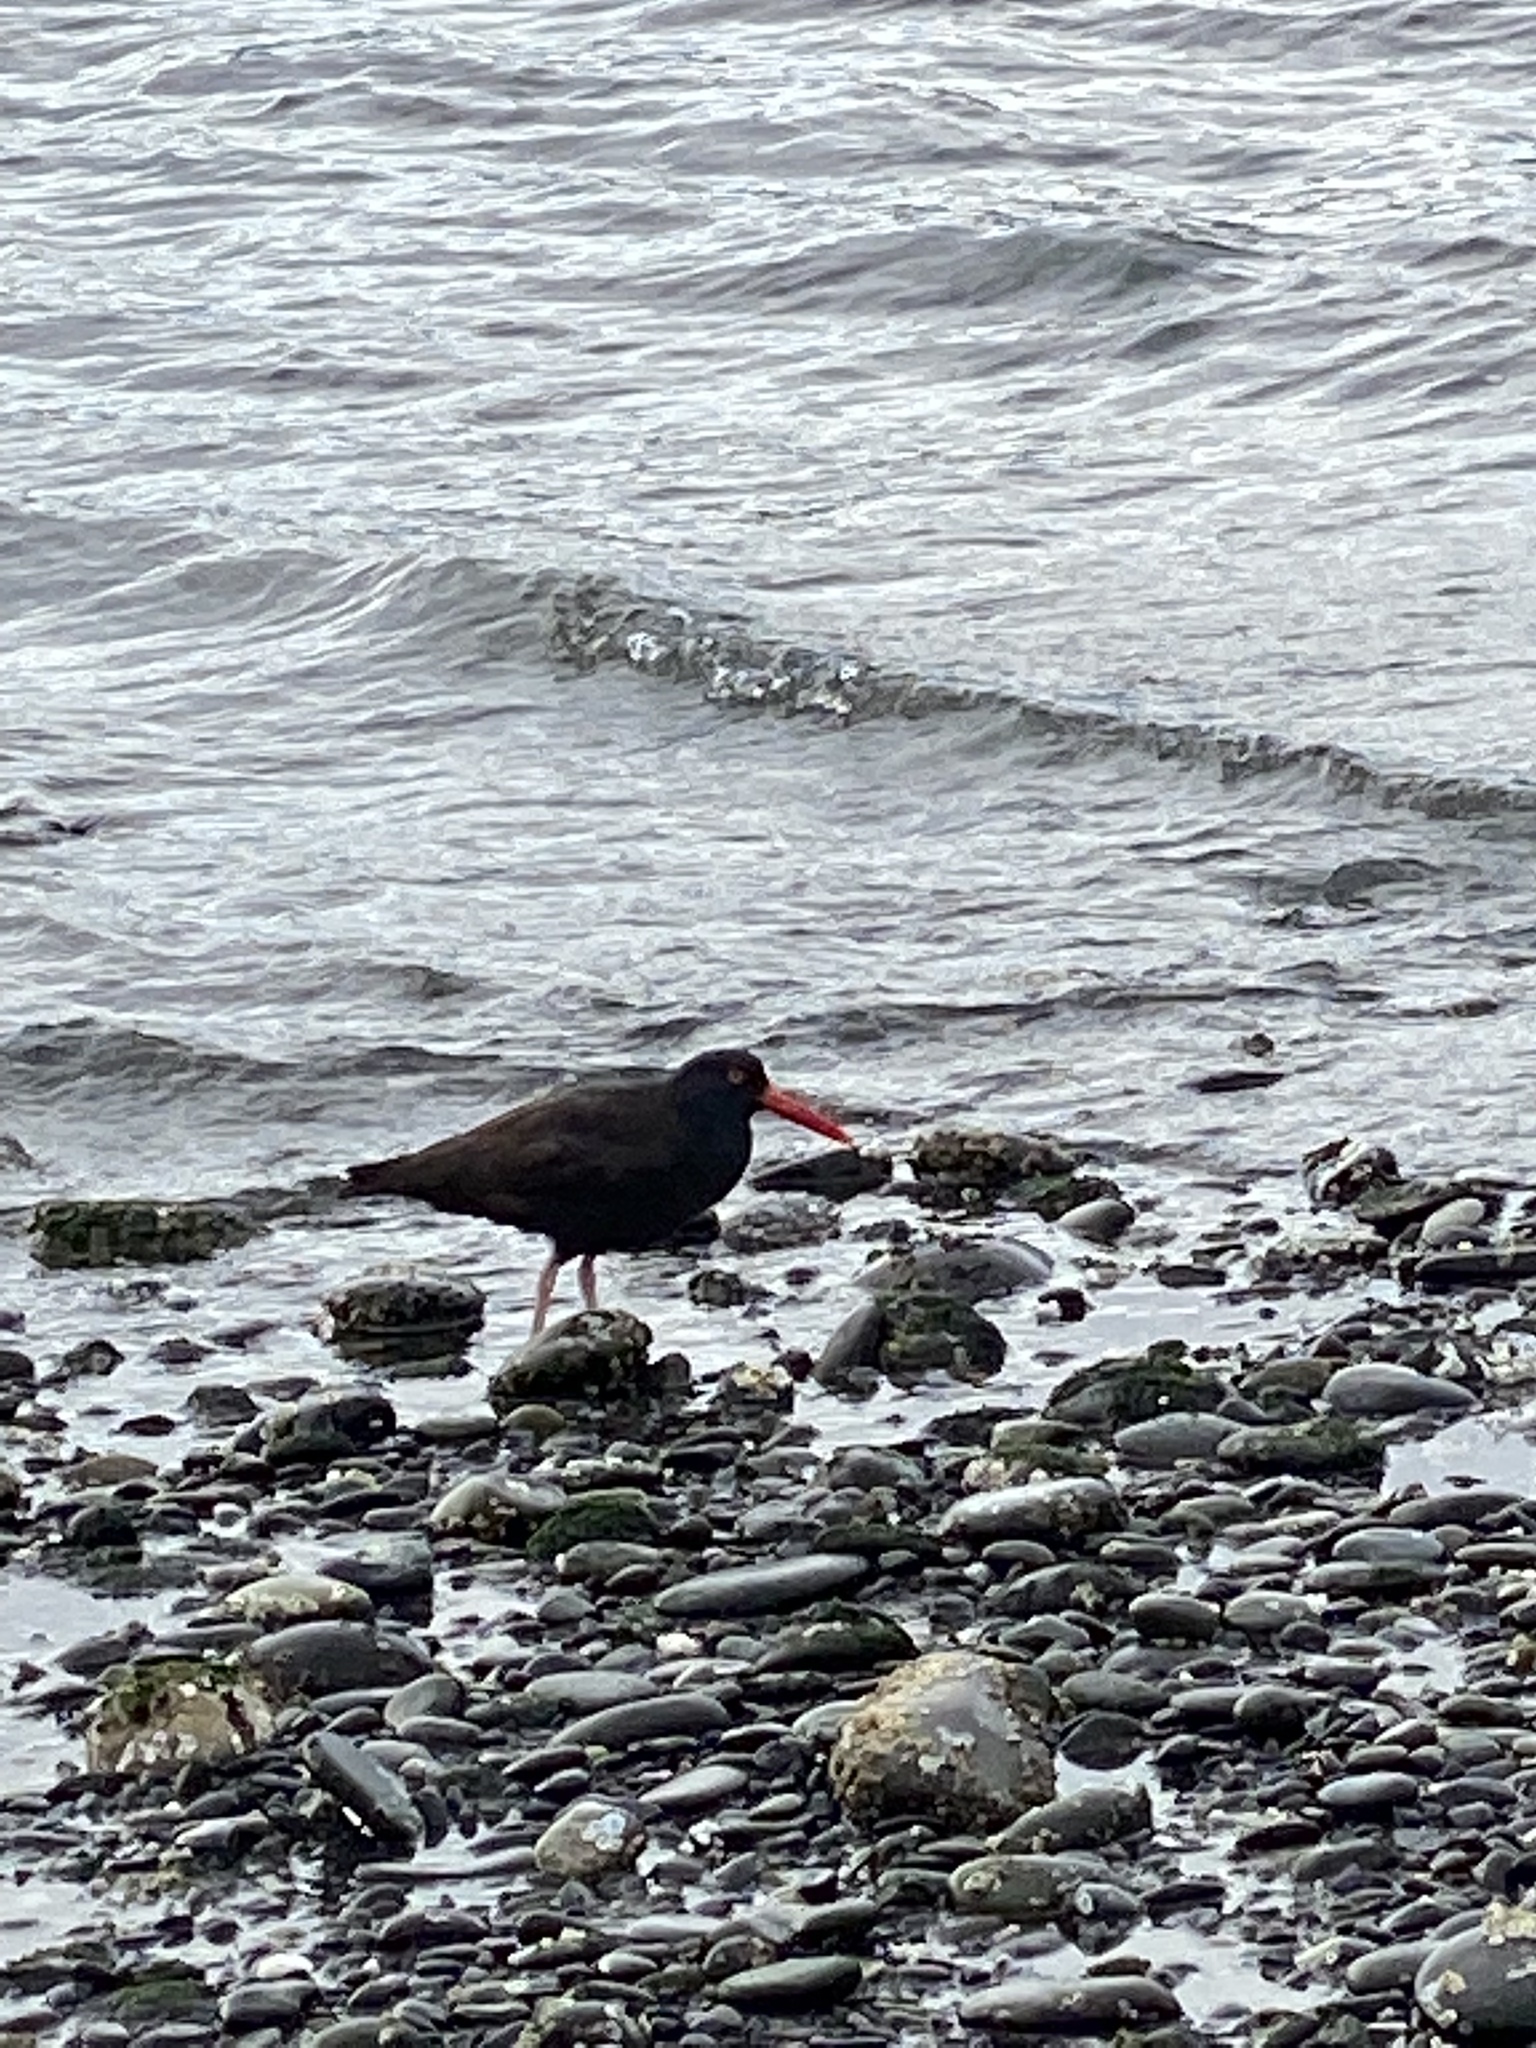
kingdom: Animalia
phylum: Chordata
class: Aves
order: Charadriiformes
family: Haematopodidae
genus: Haematopus
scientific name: Haematopus bachmani
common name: Black oystercatcher
